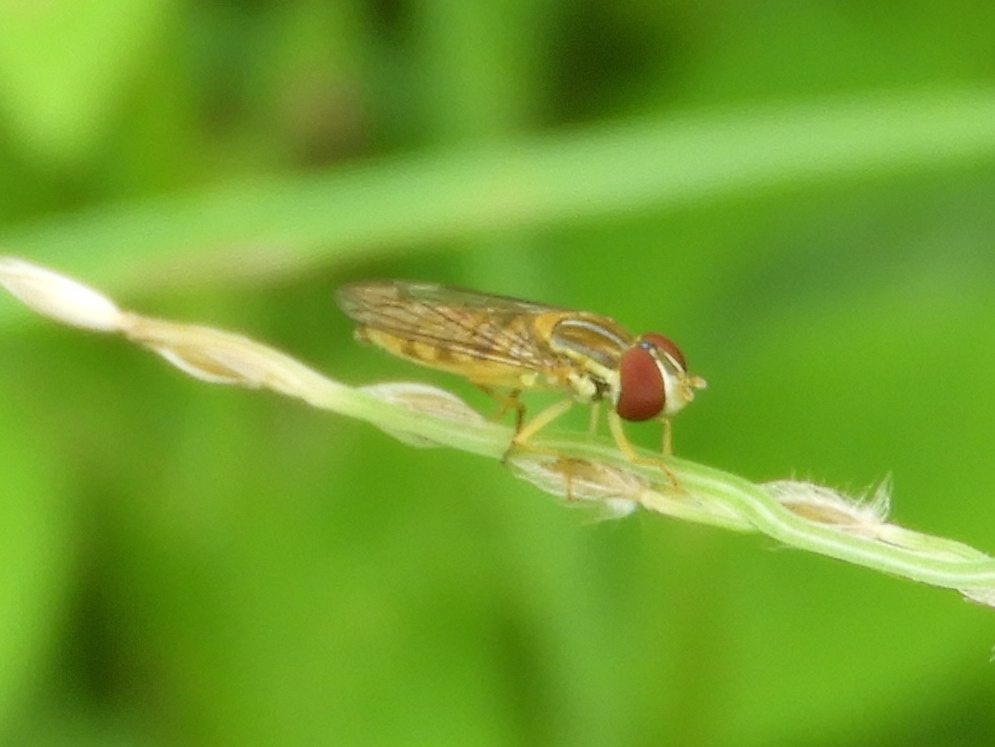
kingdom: Animalia
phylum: Arthropoda
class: Insecta
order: Diptera
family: Syrphidae
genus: Toxomerus
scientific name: Toxomerus politus
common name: Maize calligrapher
